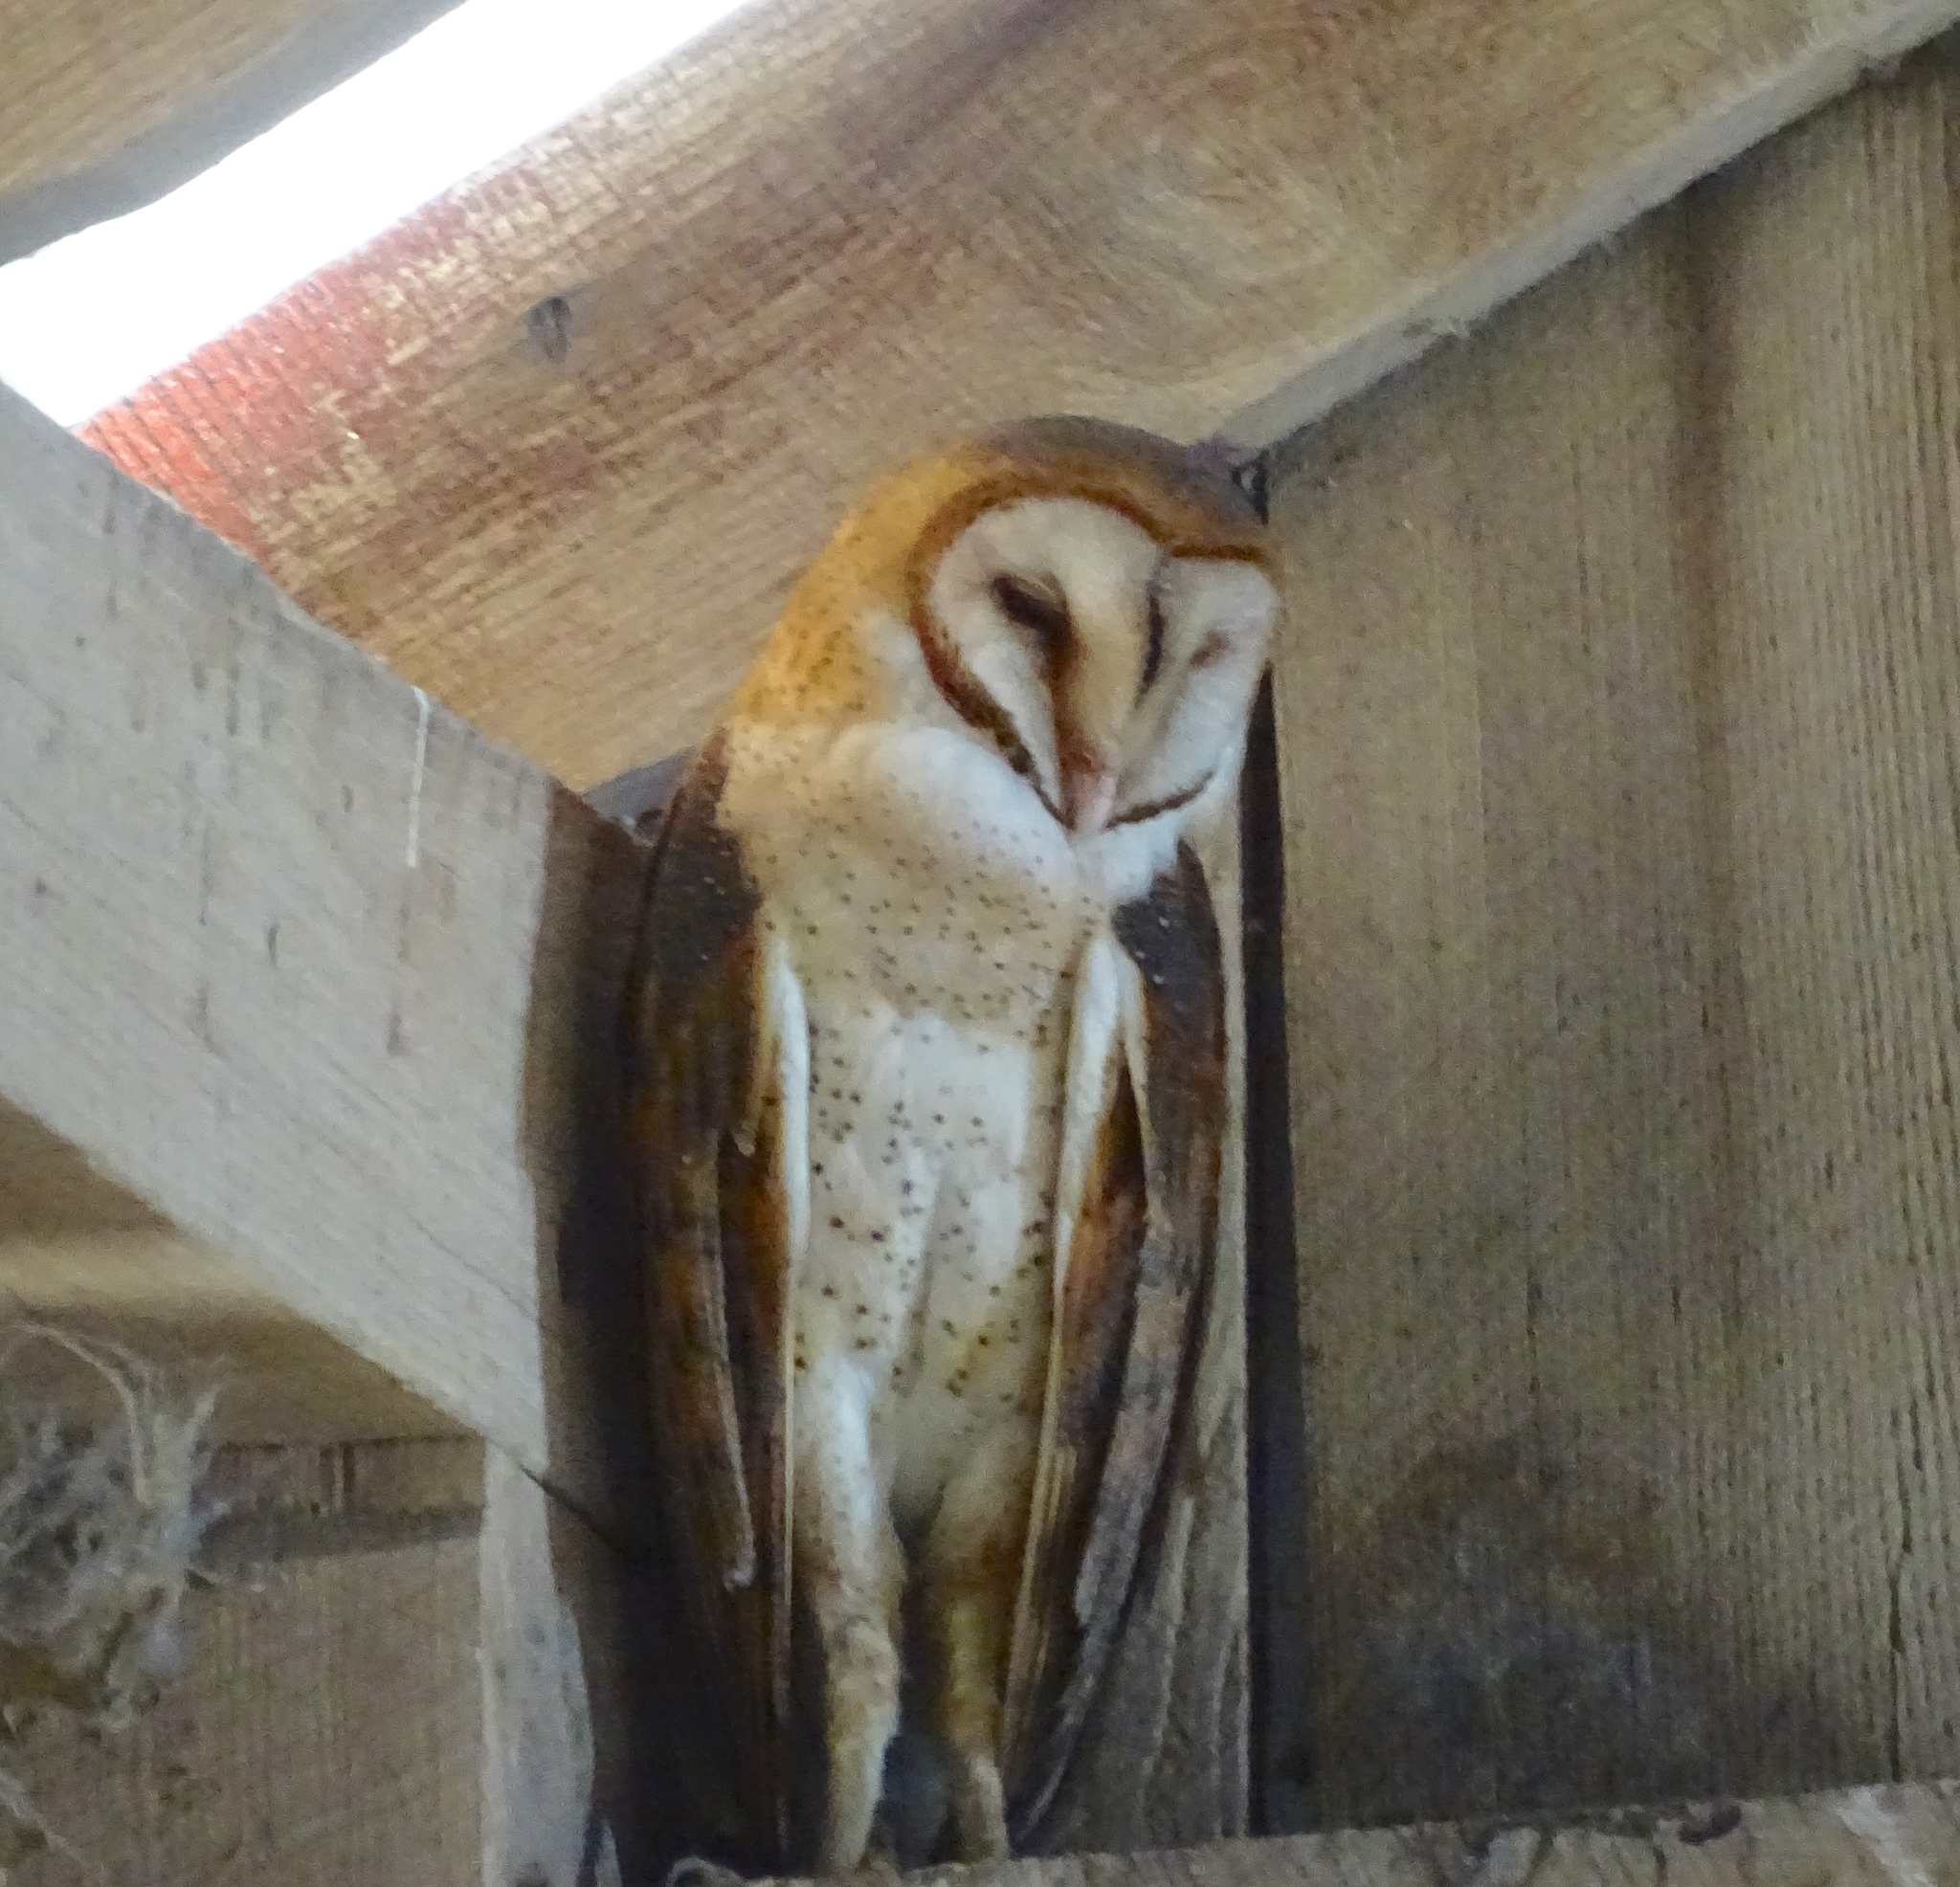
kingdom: Animalia
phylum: Chordata
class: Aves
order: Strigiformes
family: Tytonidae
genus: Tyto
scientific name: Tyto alba
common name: Barn owl
